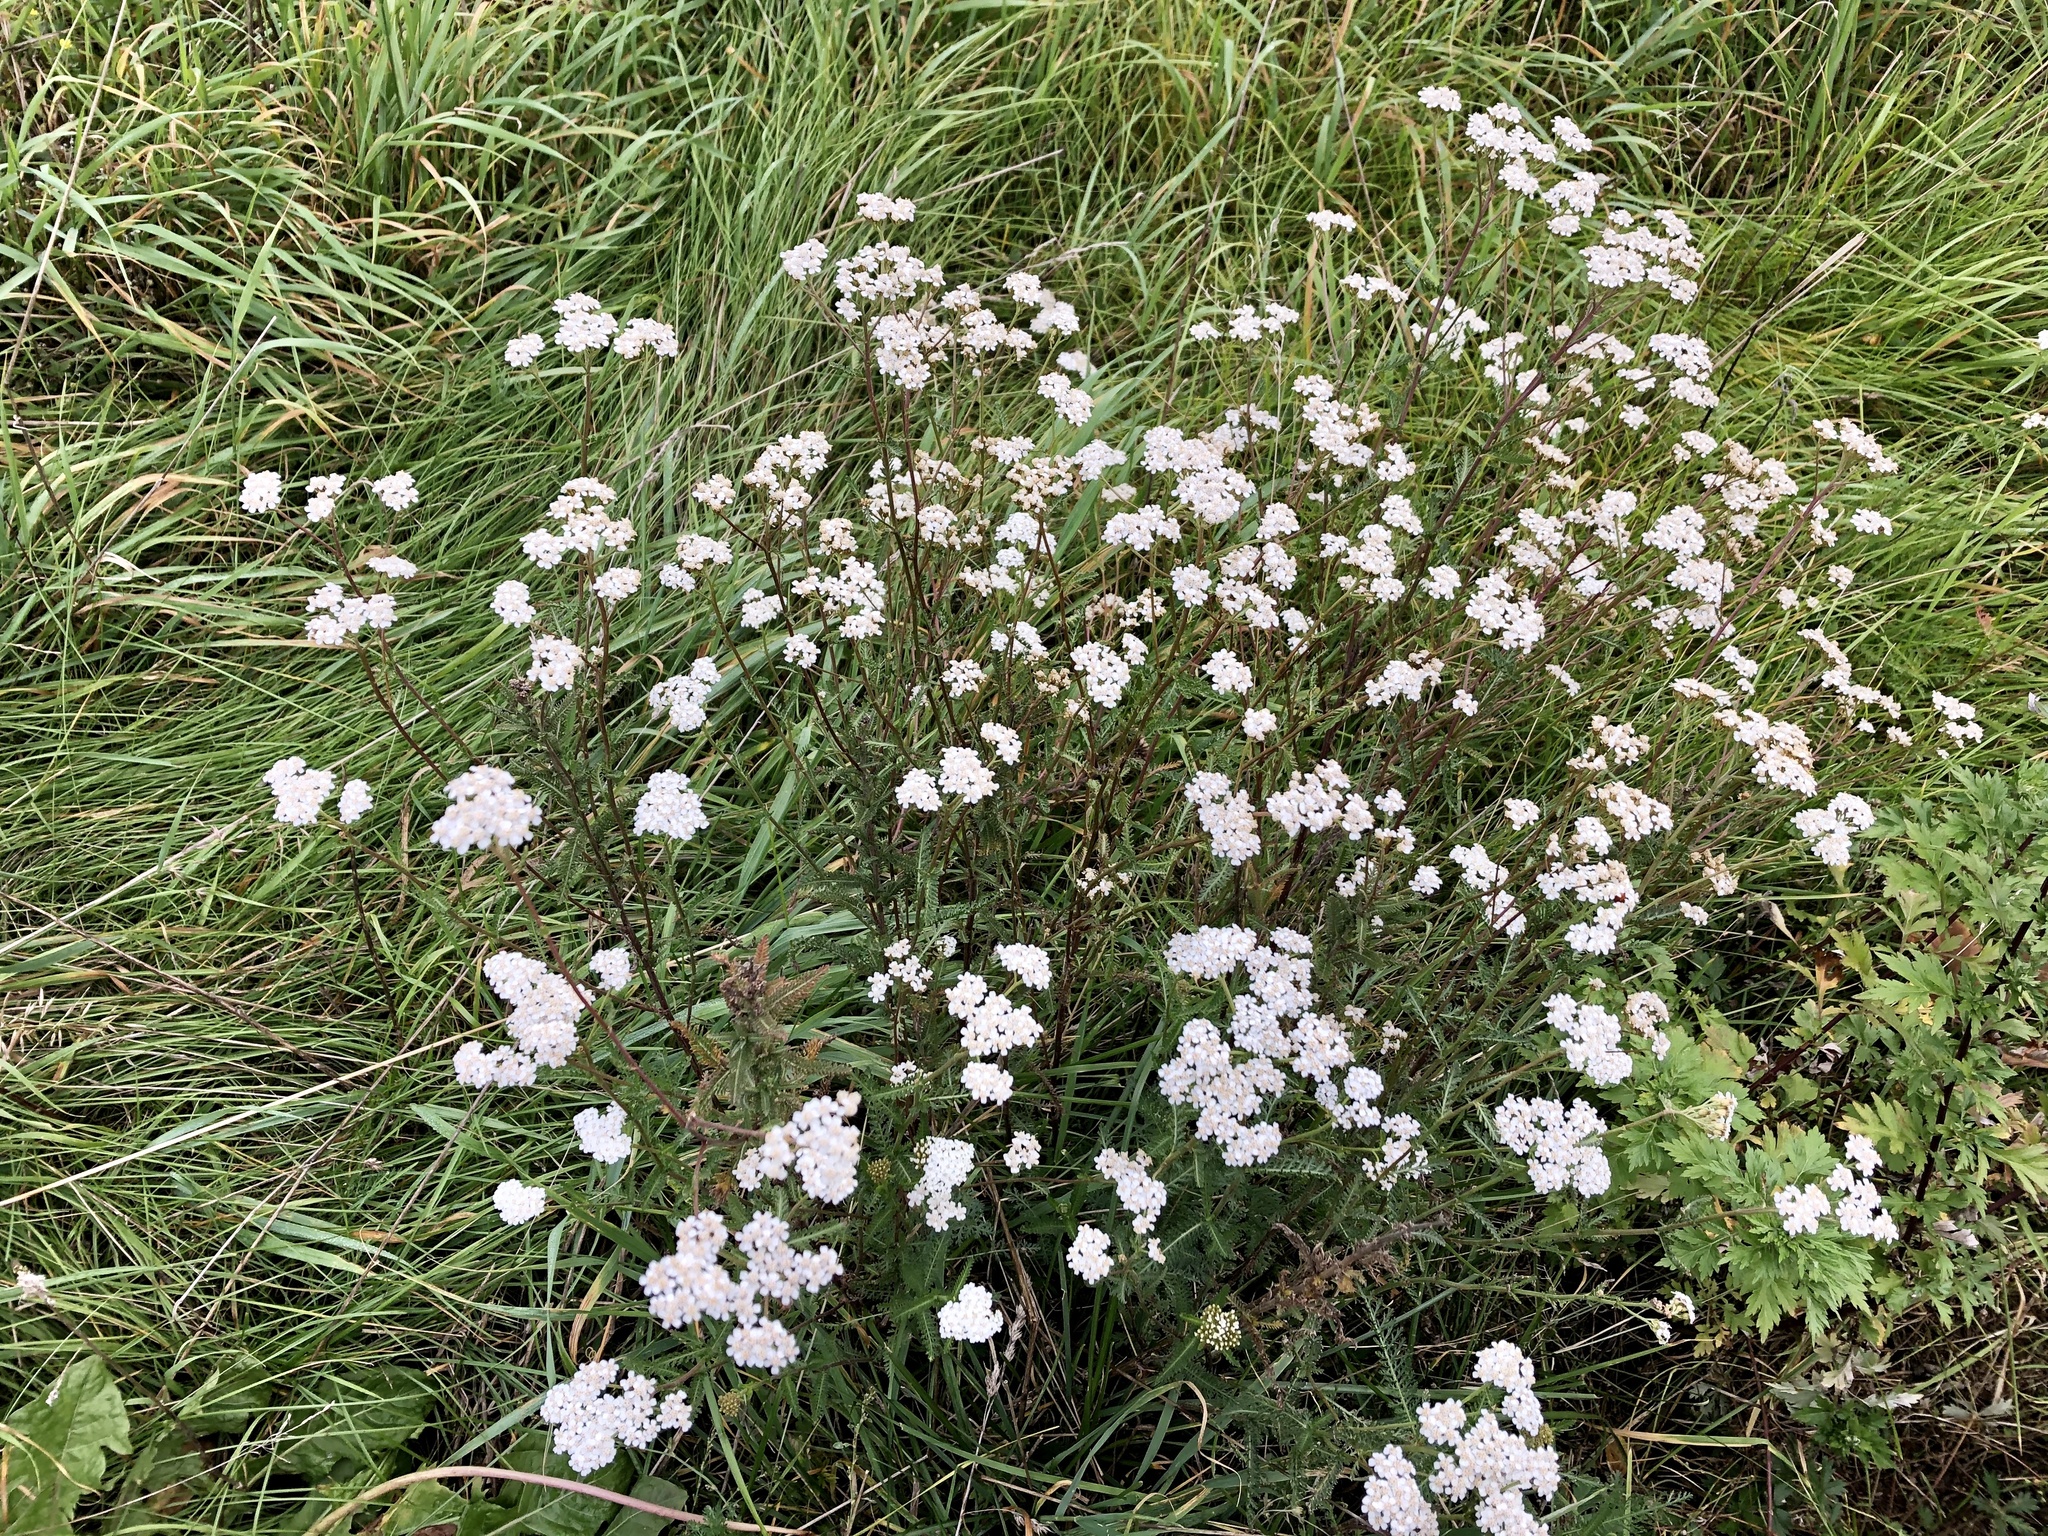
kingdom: Plantae
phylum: Tracheophyta
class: Magnoliopsida
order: Asterales
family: Asteraceae
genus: Achillea
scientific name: Achillea millefolium
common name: Yarrow
